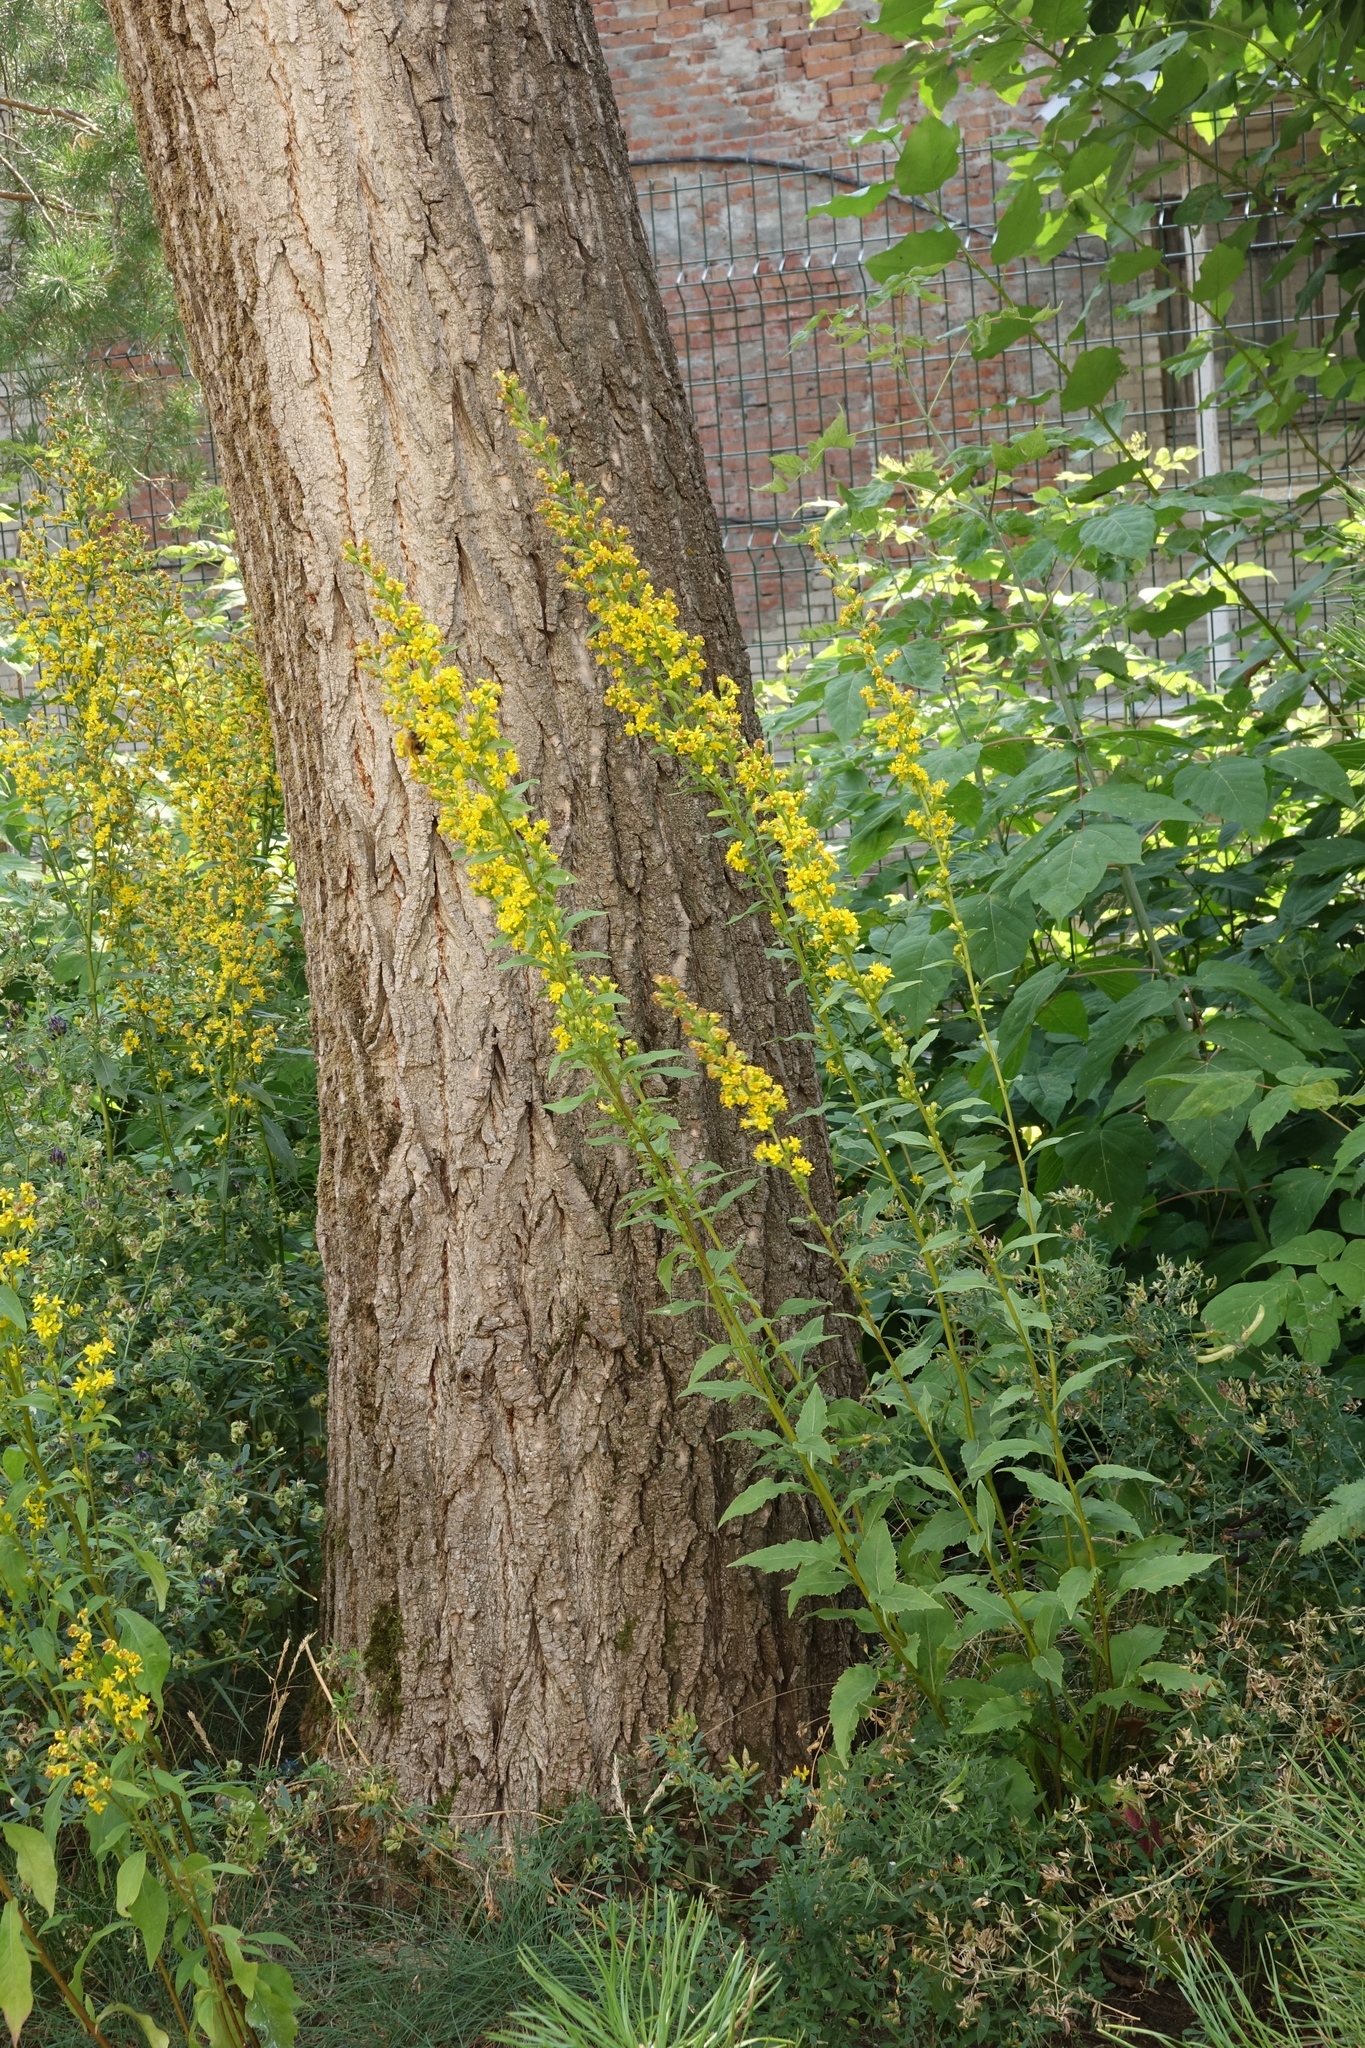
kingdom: Plantae
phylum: Tracheophyta
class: Magnoliopsida
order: Asterales
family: Asteraceae
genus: Solidago
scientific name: Solidago virgaurea
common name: Goldenrod
